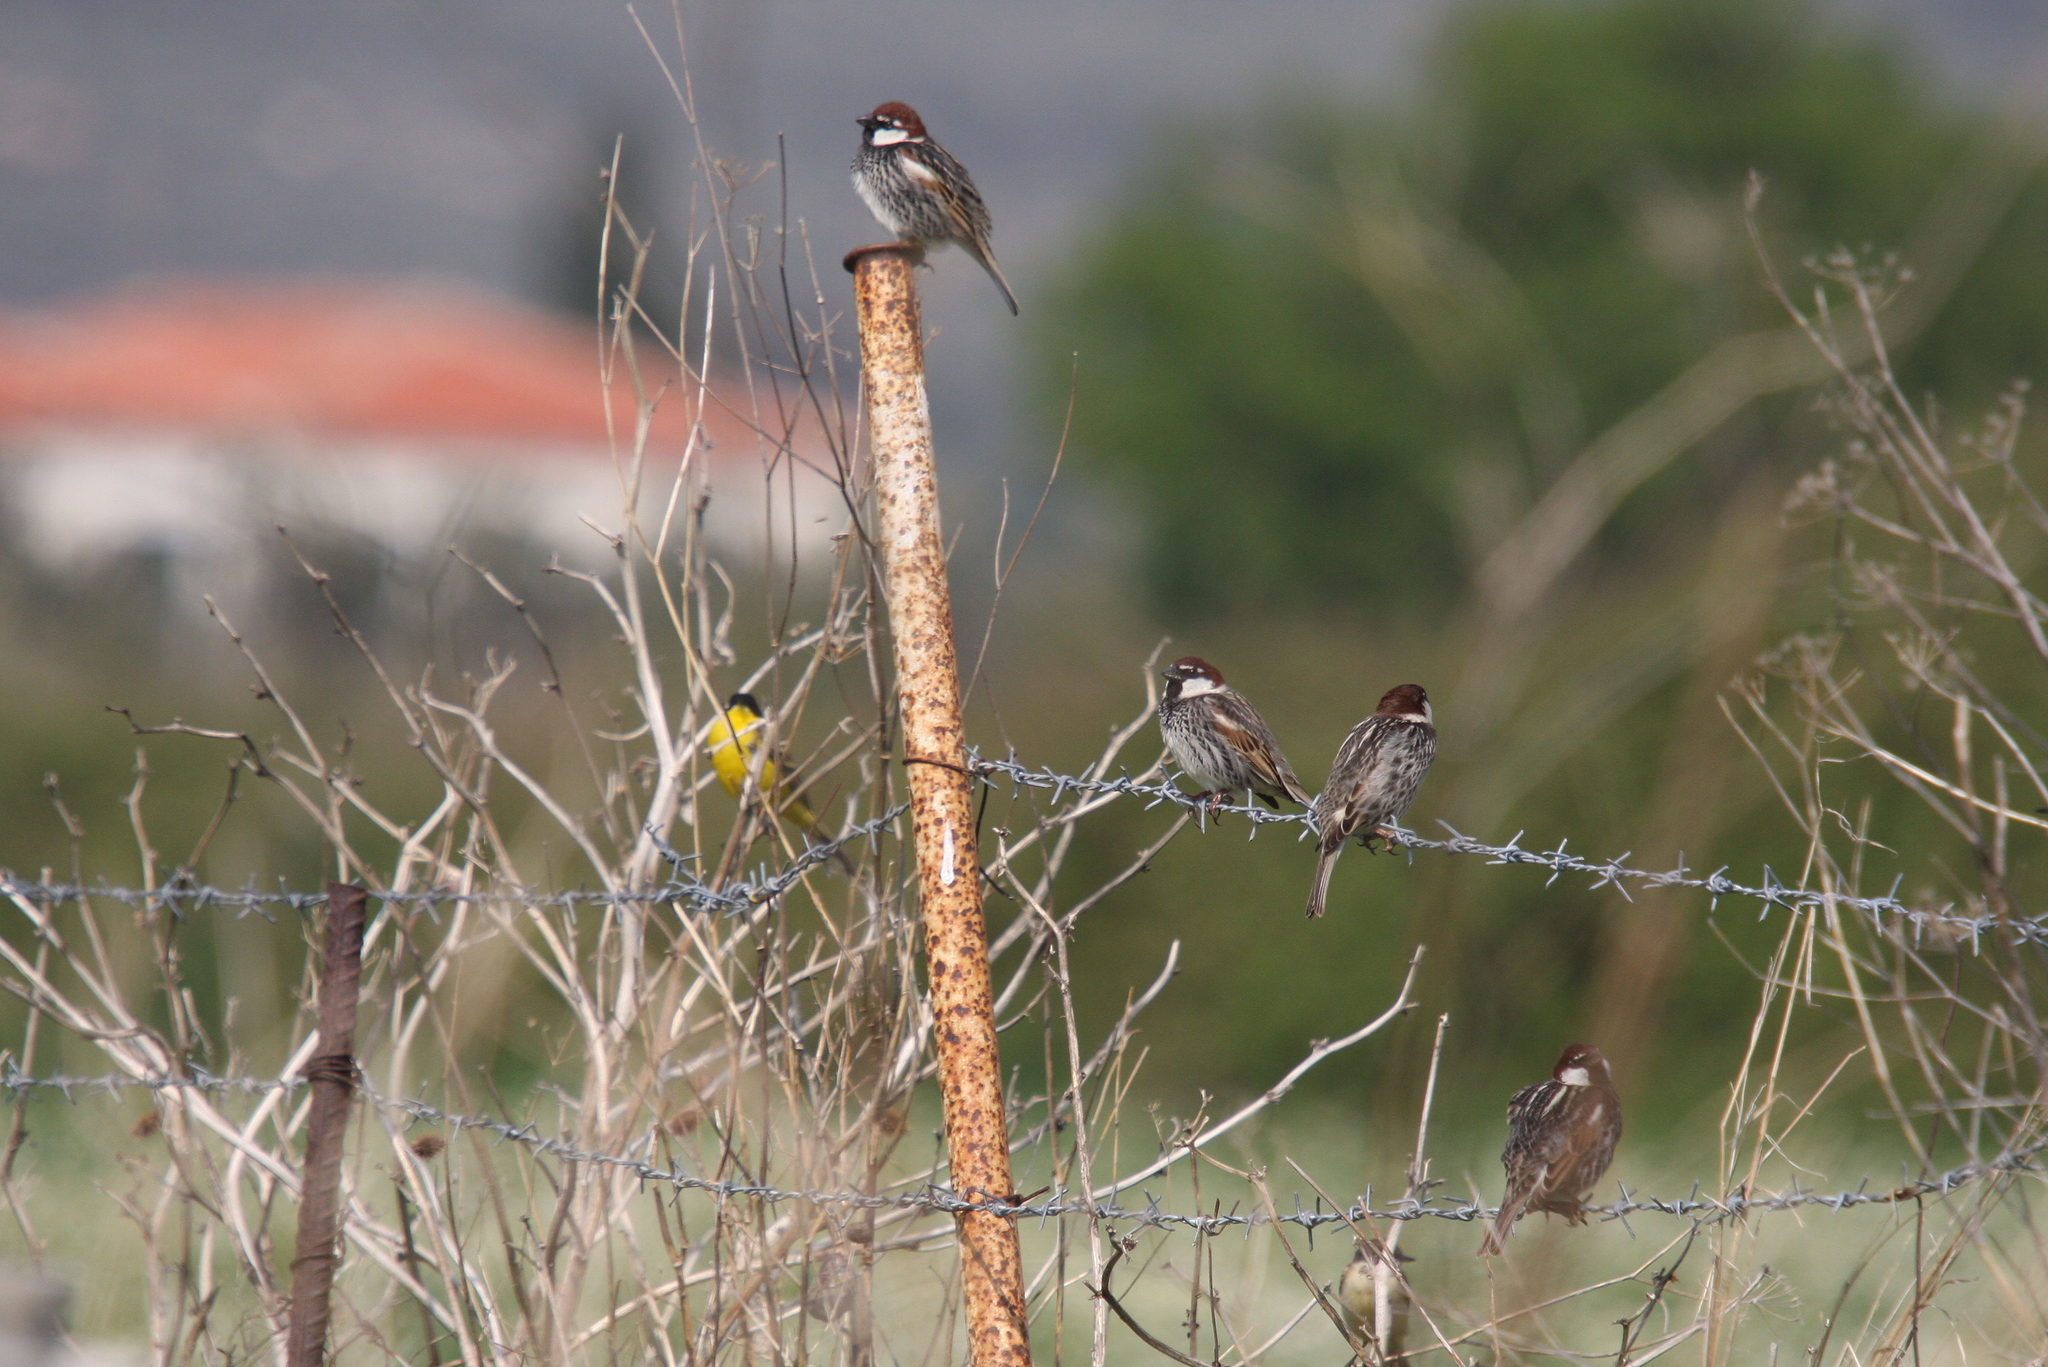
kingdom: Animalia
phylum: Chordata
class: Aves
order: Passeriformes
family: Passeridae
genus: Passer
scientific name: Passer hispaniolensis
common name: Spanish sparrow
